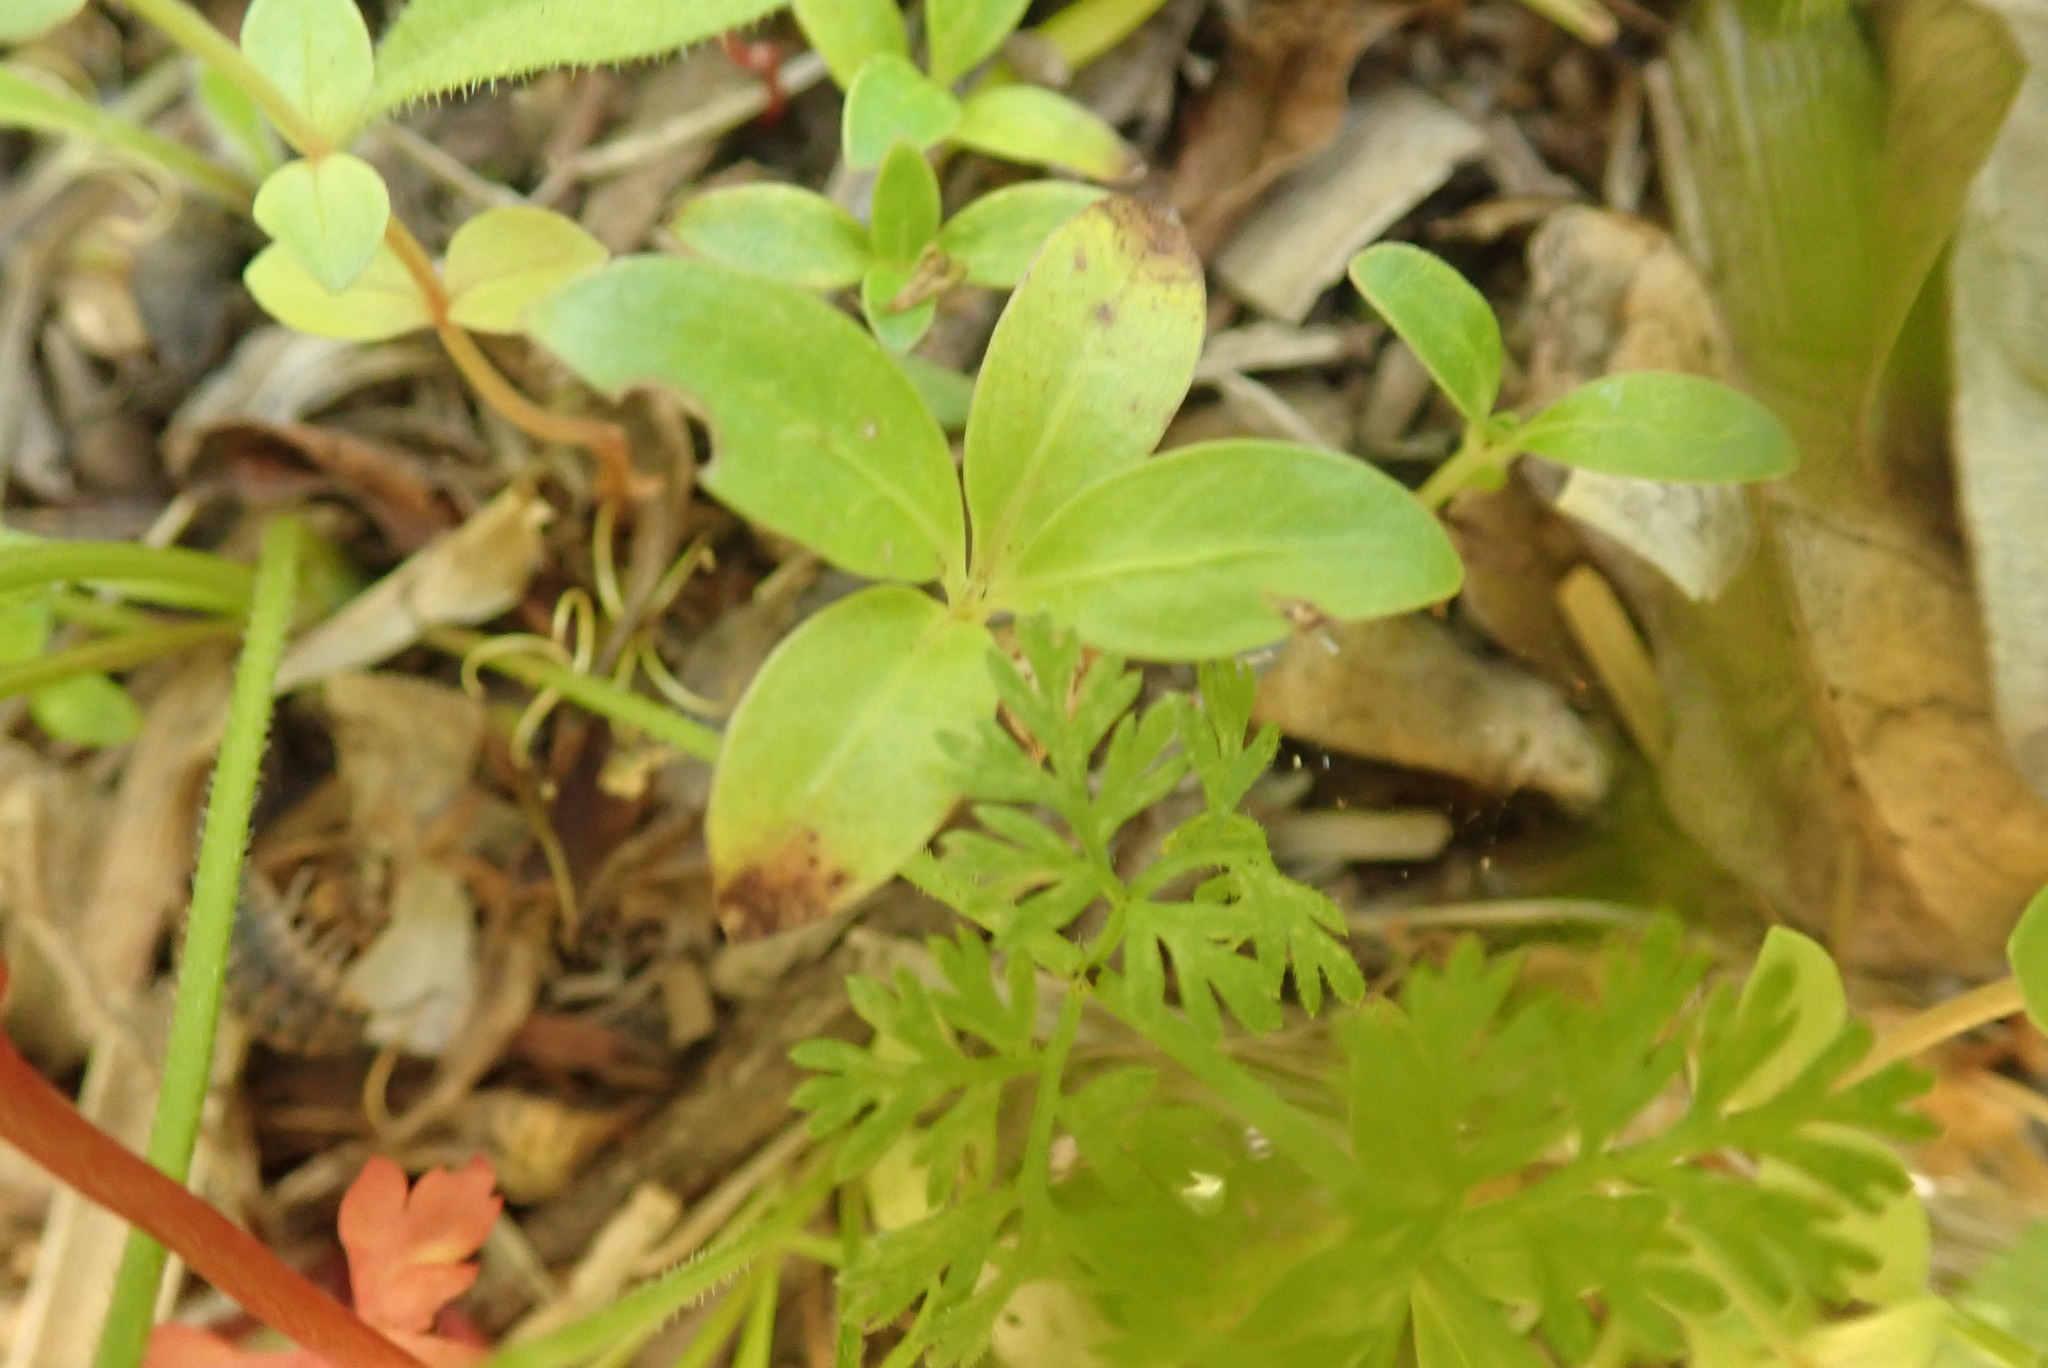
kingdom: Plantae
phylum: Tracheophyta
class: Magnoliopsida
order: Gentianales
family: Rubiaceae
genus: Coprosma
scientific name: Coprosma robusta
